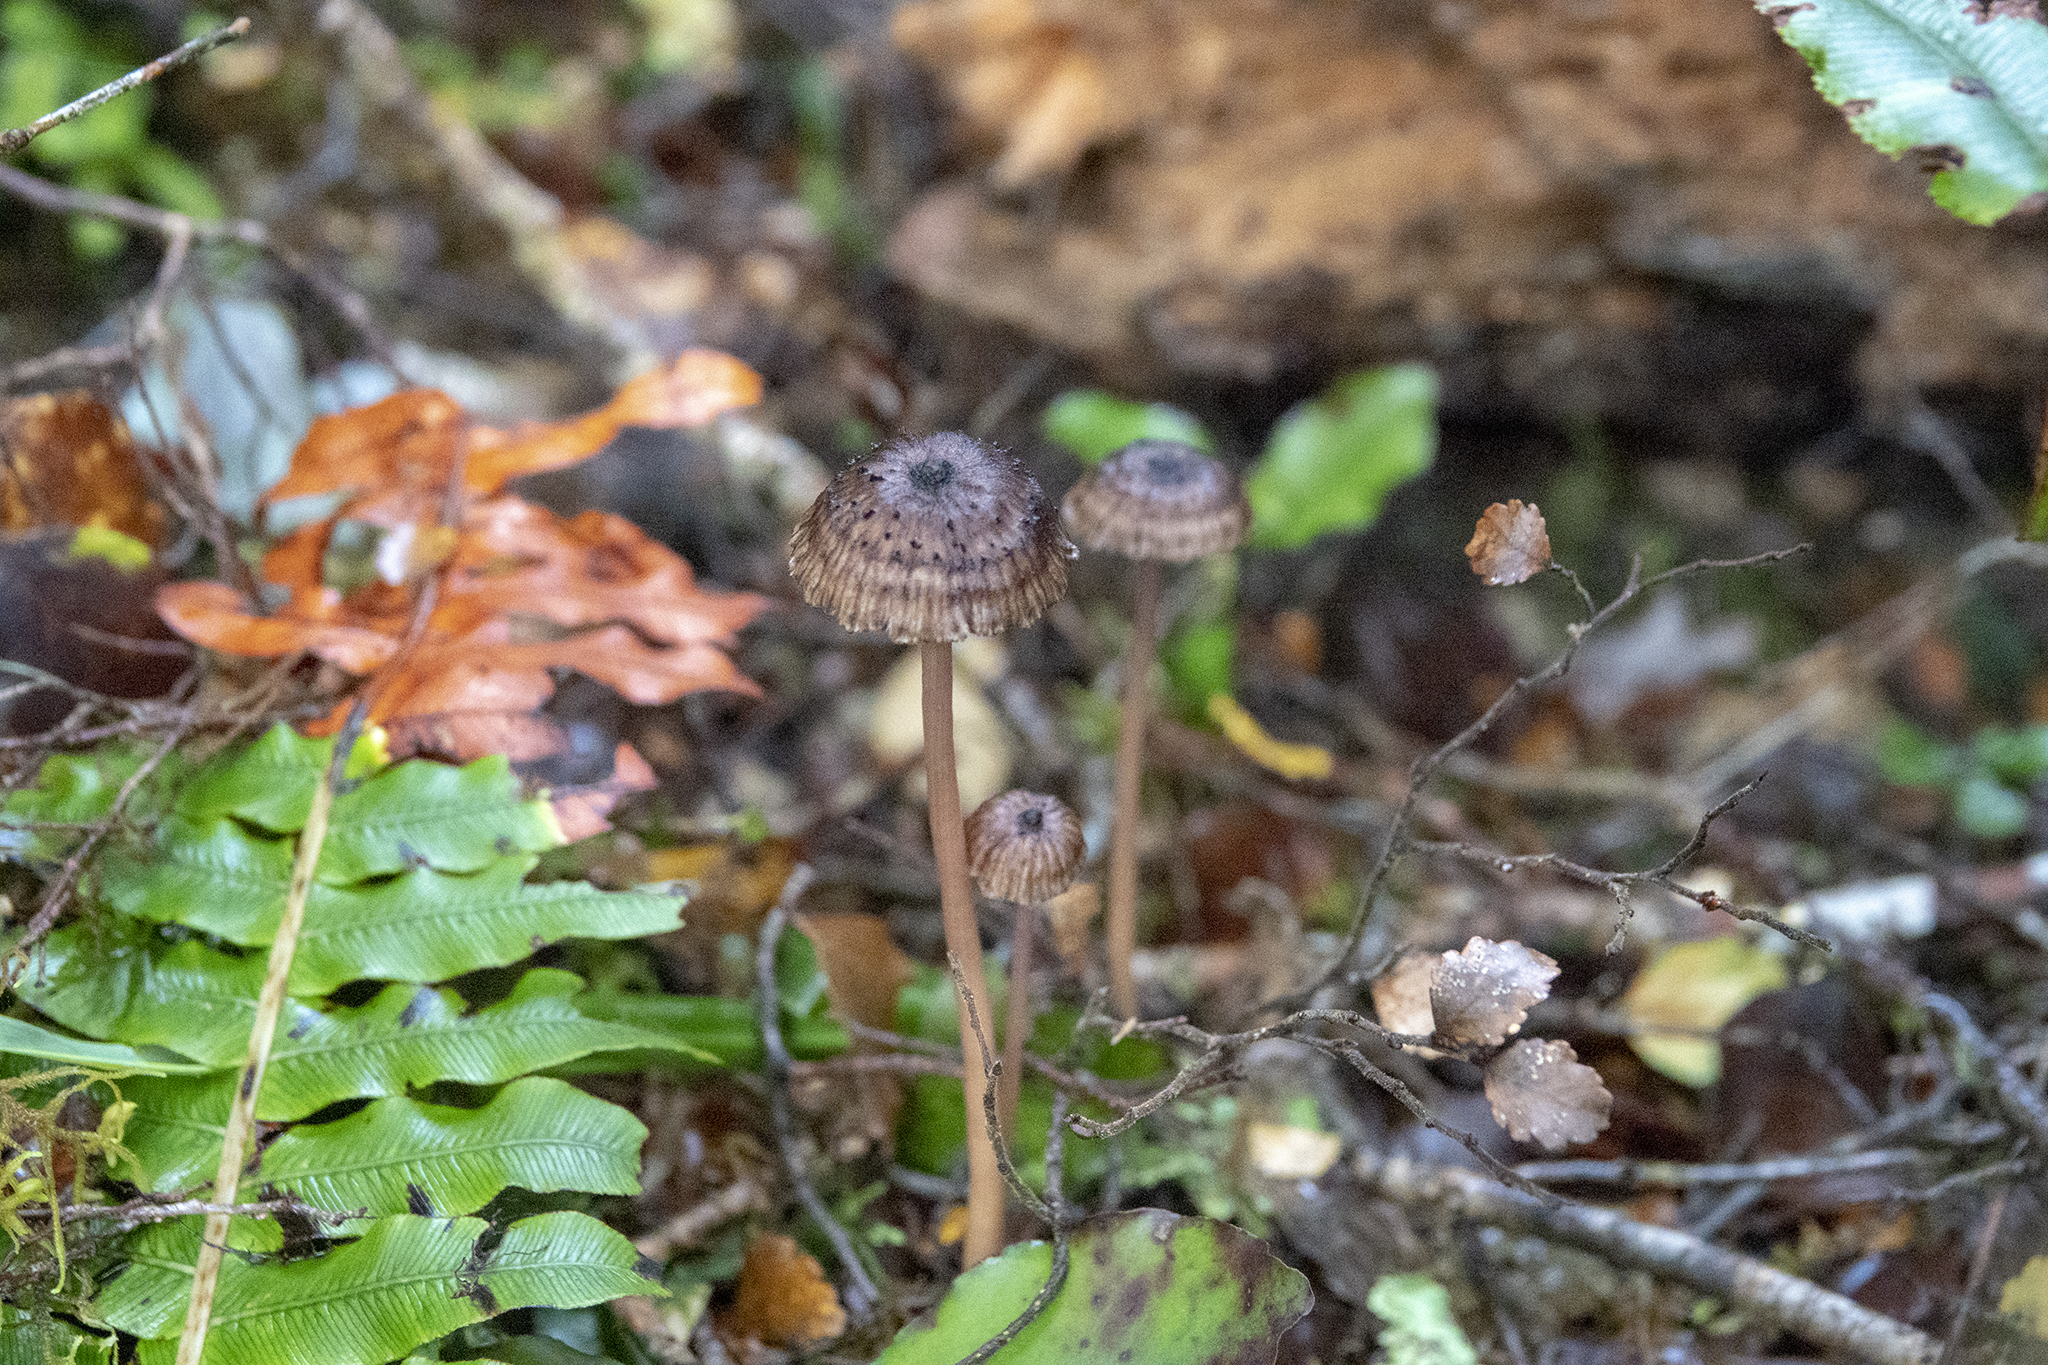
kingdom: Fungi
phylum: Basidiomycota
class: Agaricomycetes
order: Agaricales
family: Hydnangiaceae
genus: Laccaria
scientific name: Laccaria masoniae
